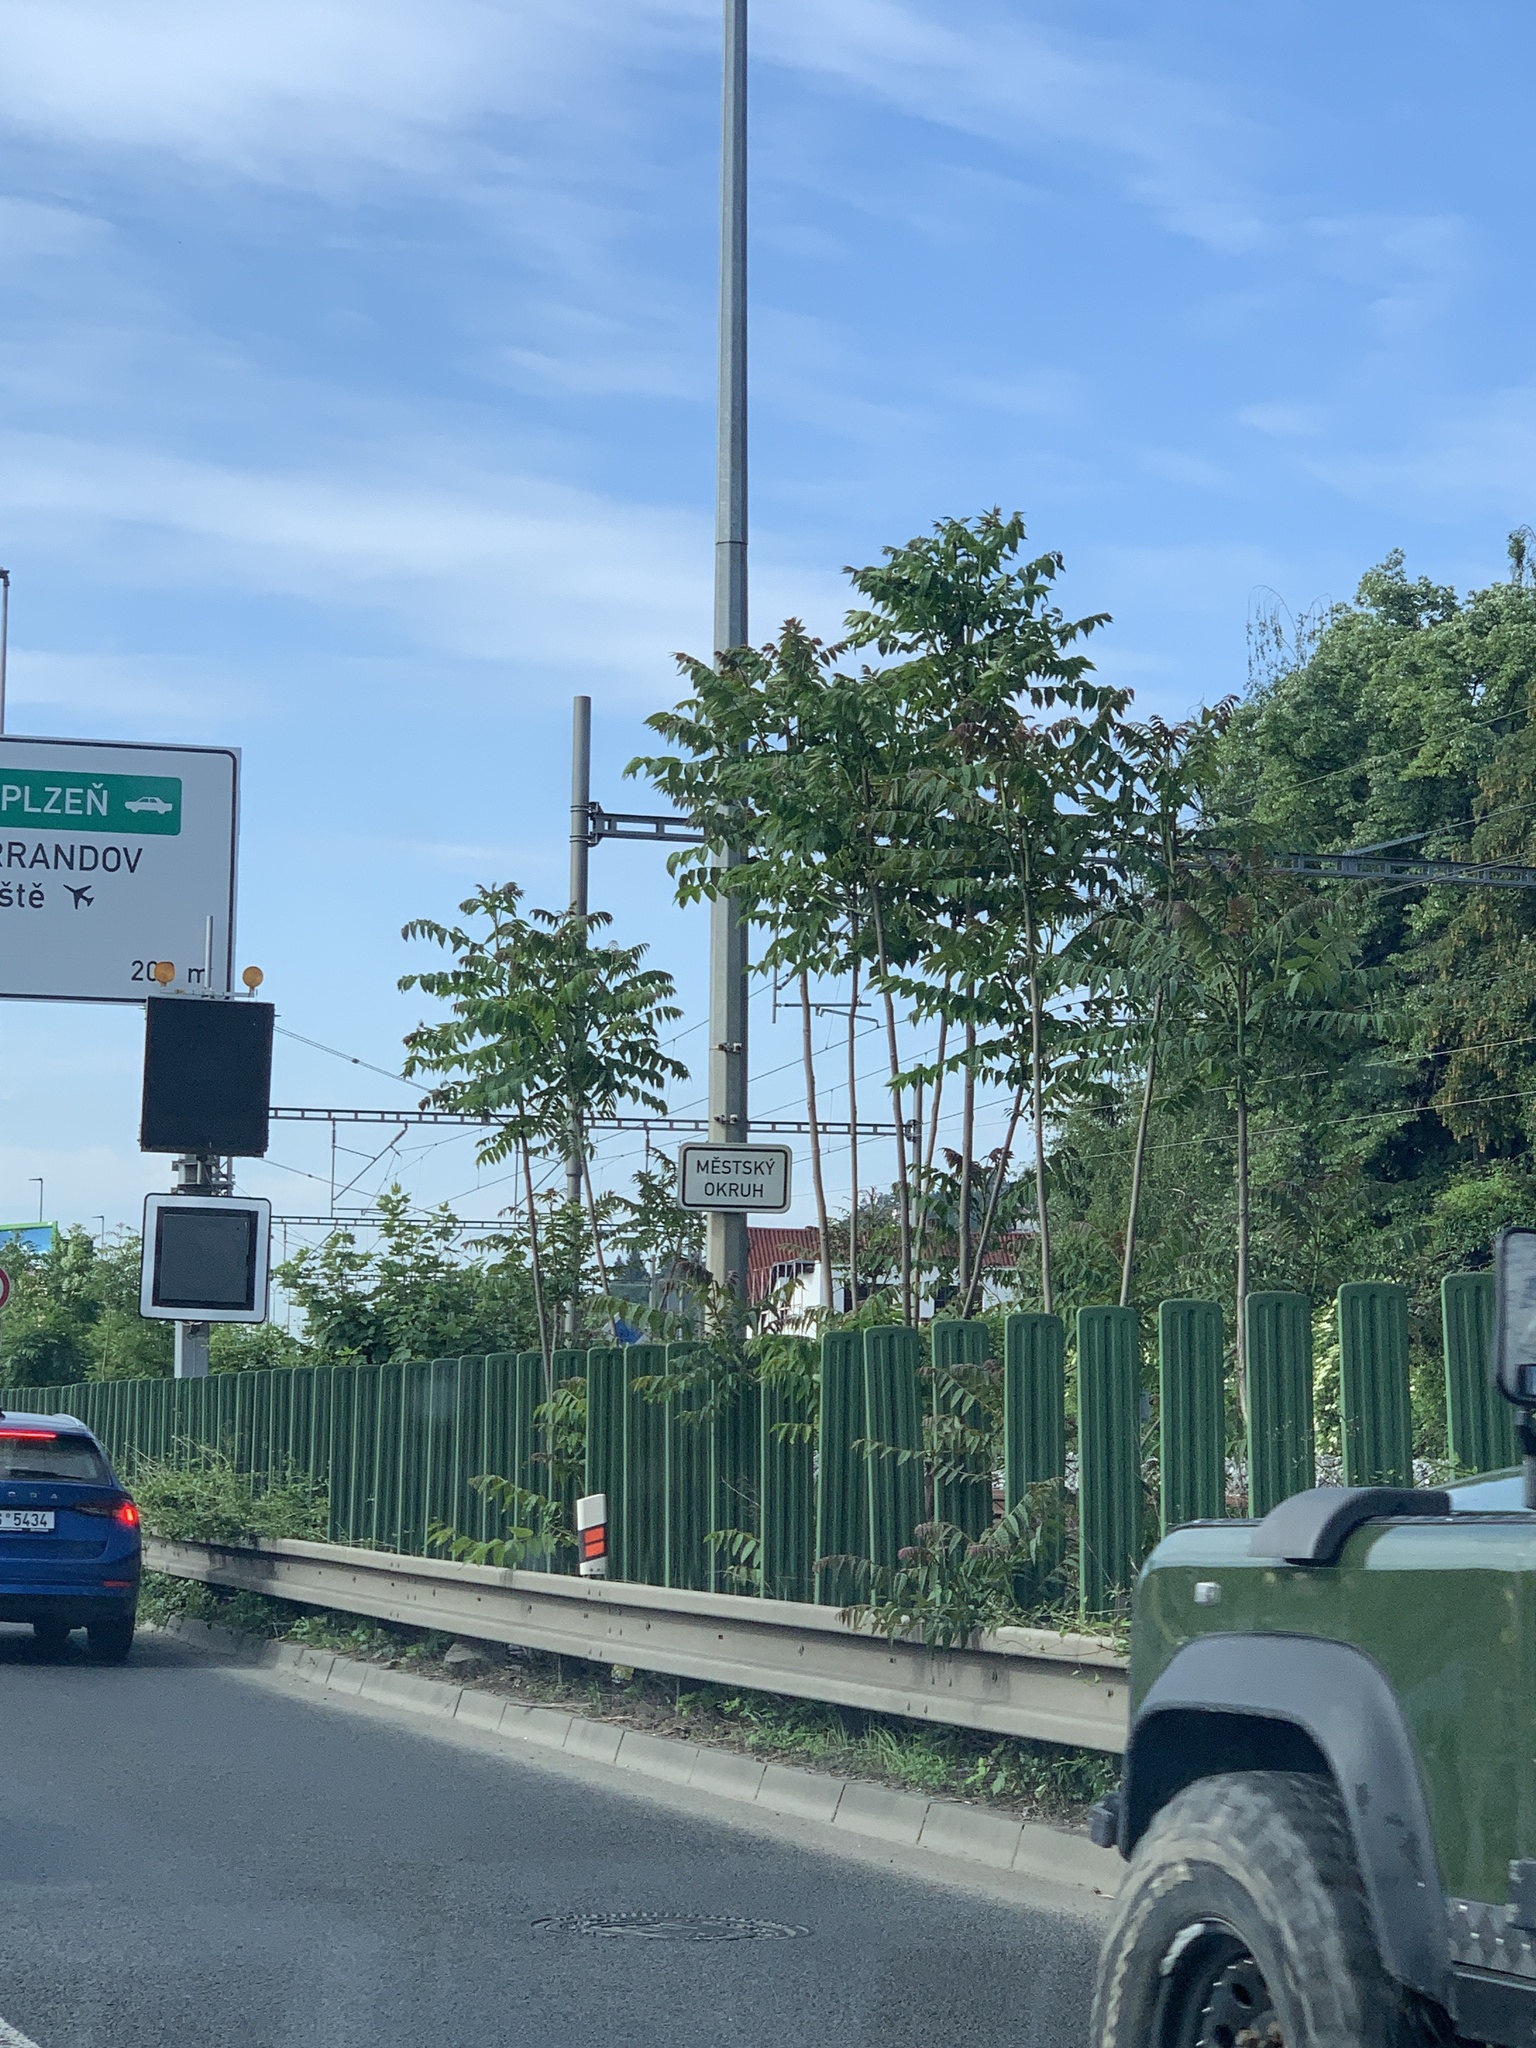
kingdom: Plantae
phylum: Tracheophyta
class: Magnoliopsida
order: Sapindales
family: Simaroubaceae
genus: Ailanthus
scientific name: Ailanthus altissima
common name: Tree-of-heaven
